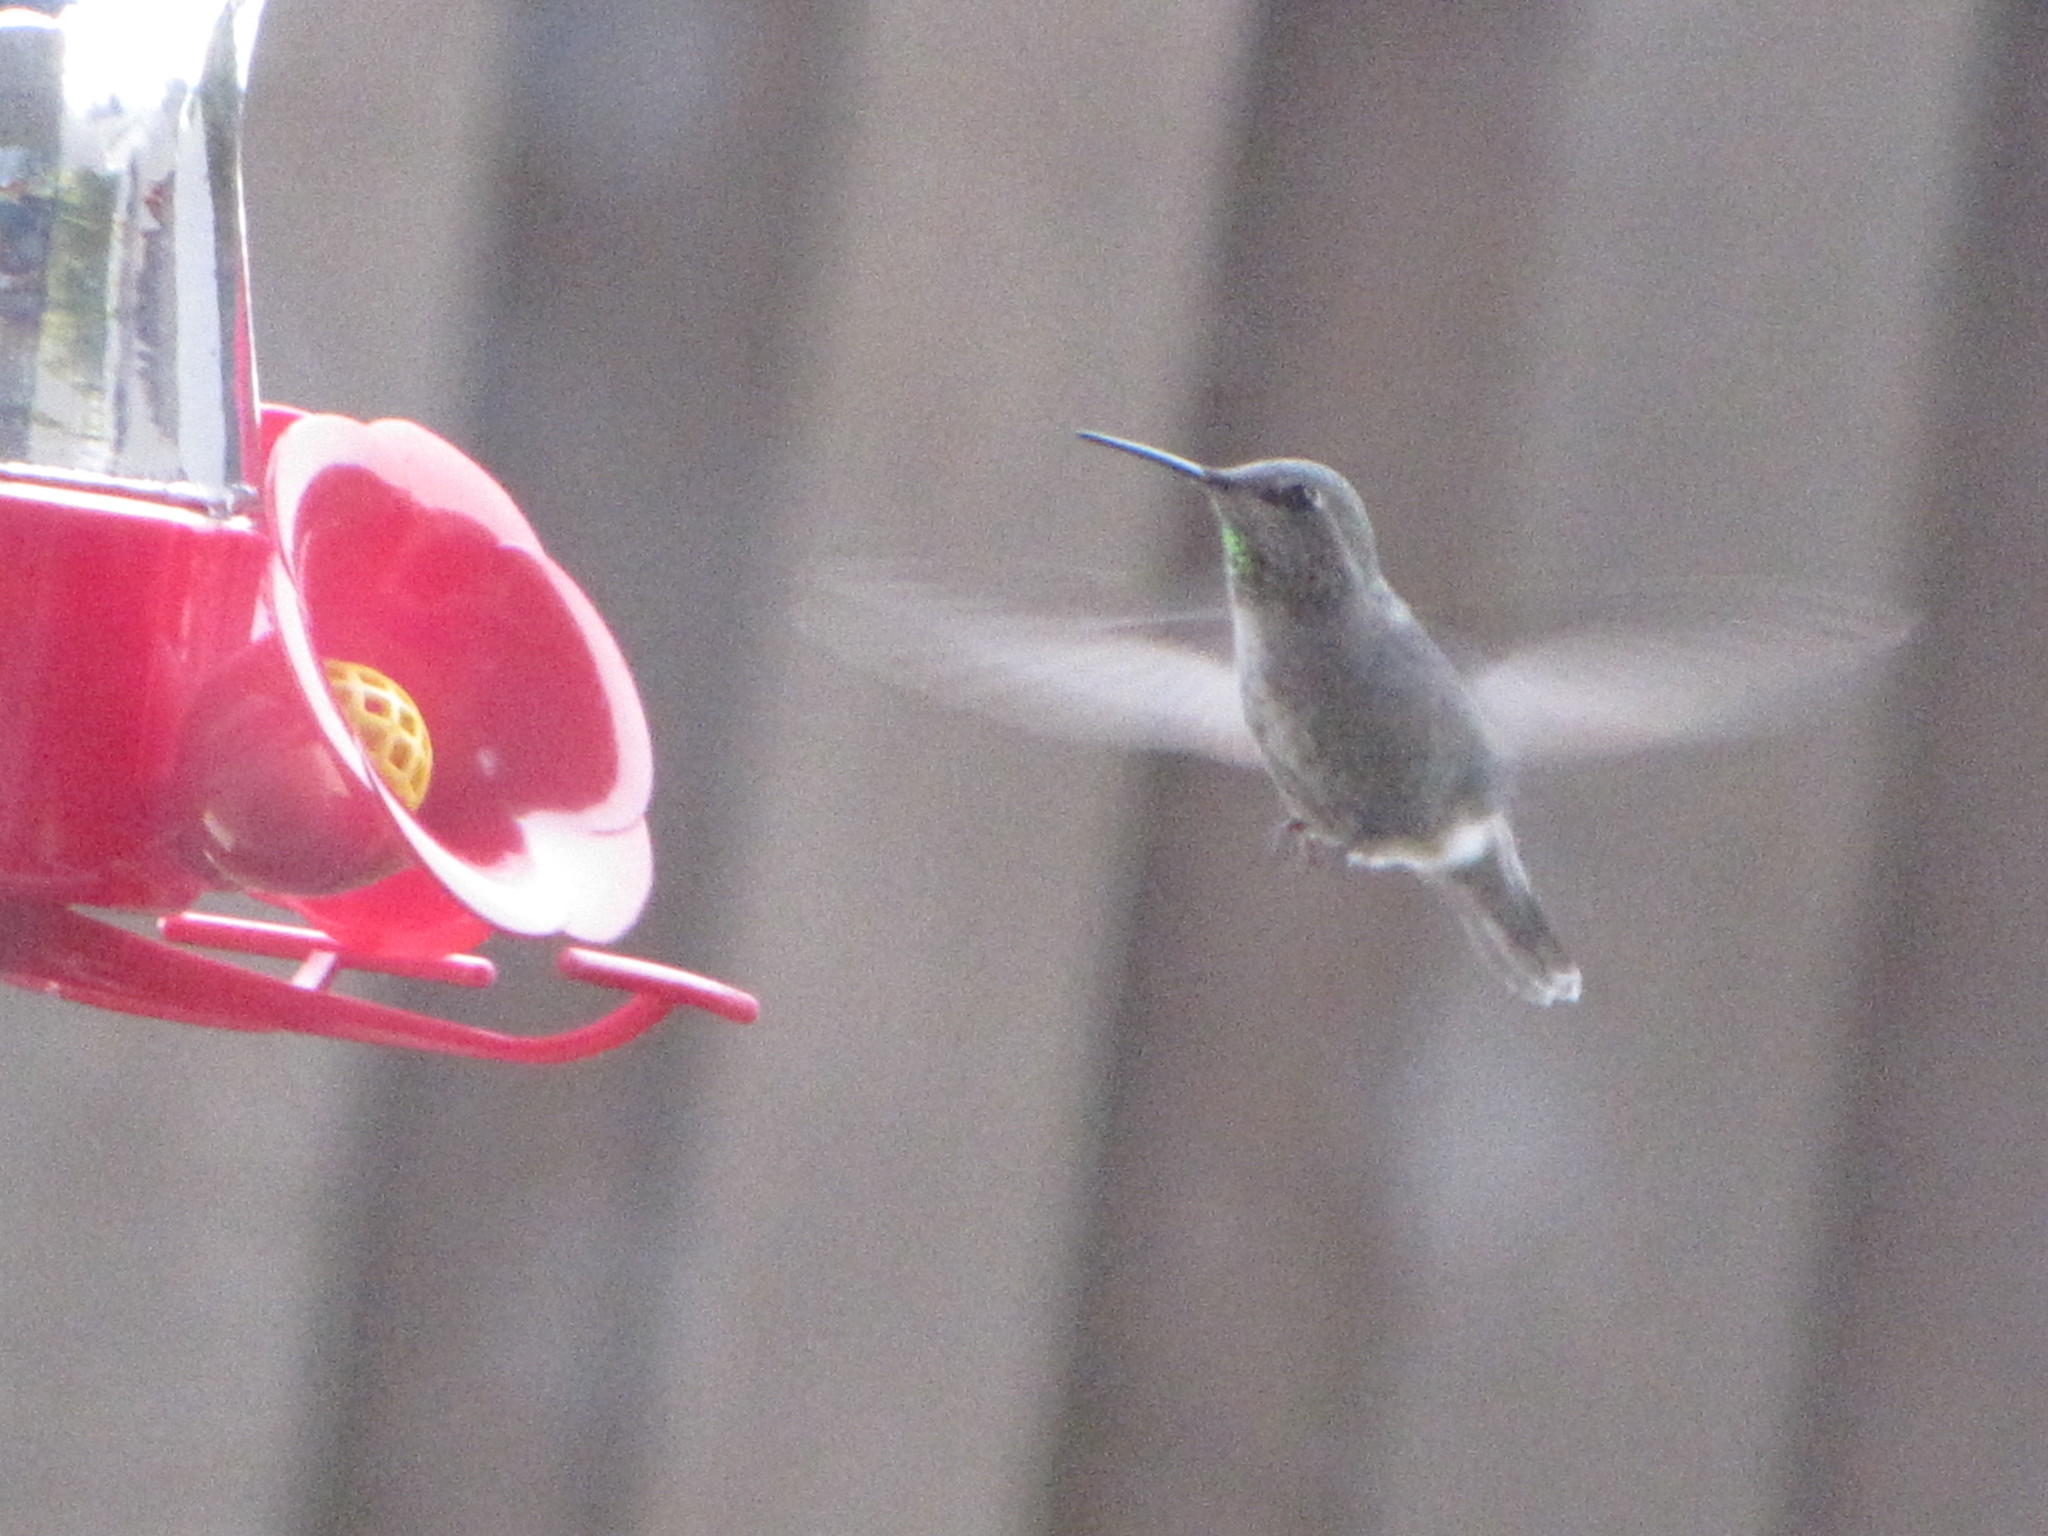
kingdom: Animalia
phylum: Chordata
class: Aves
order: Apodiformes
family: Trochilidae
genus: Calypte
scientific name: Calypte anna
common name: Anna's hummingbird
